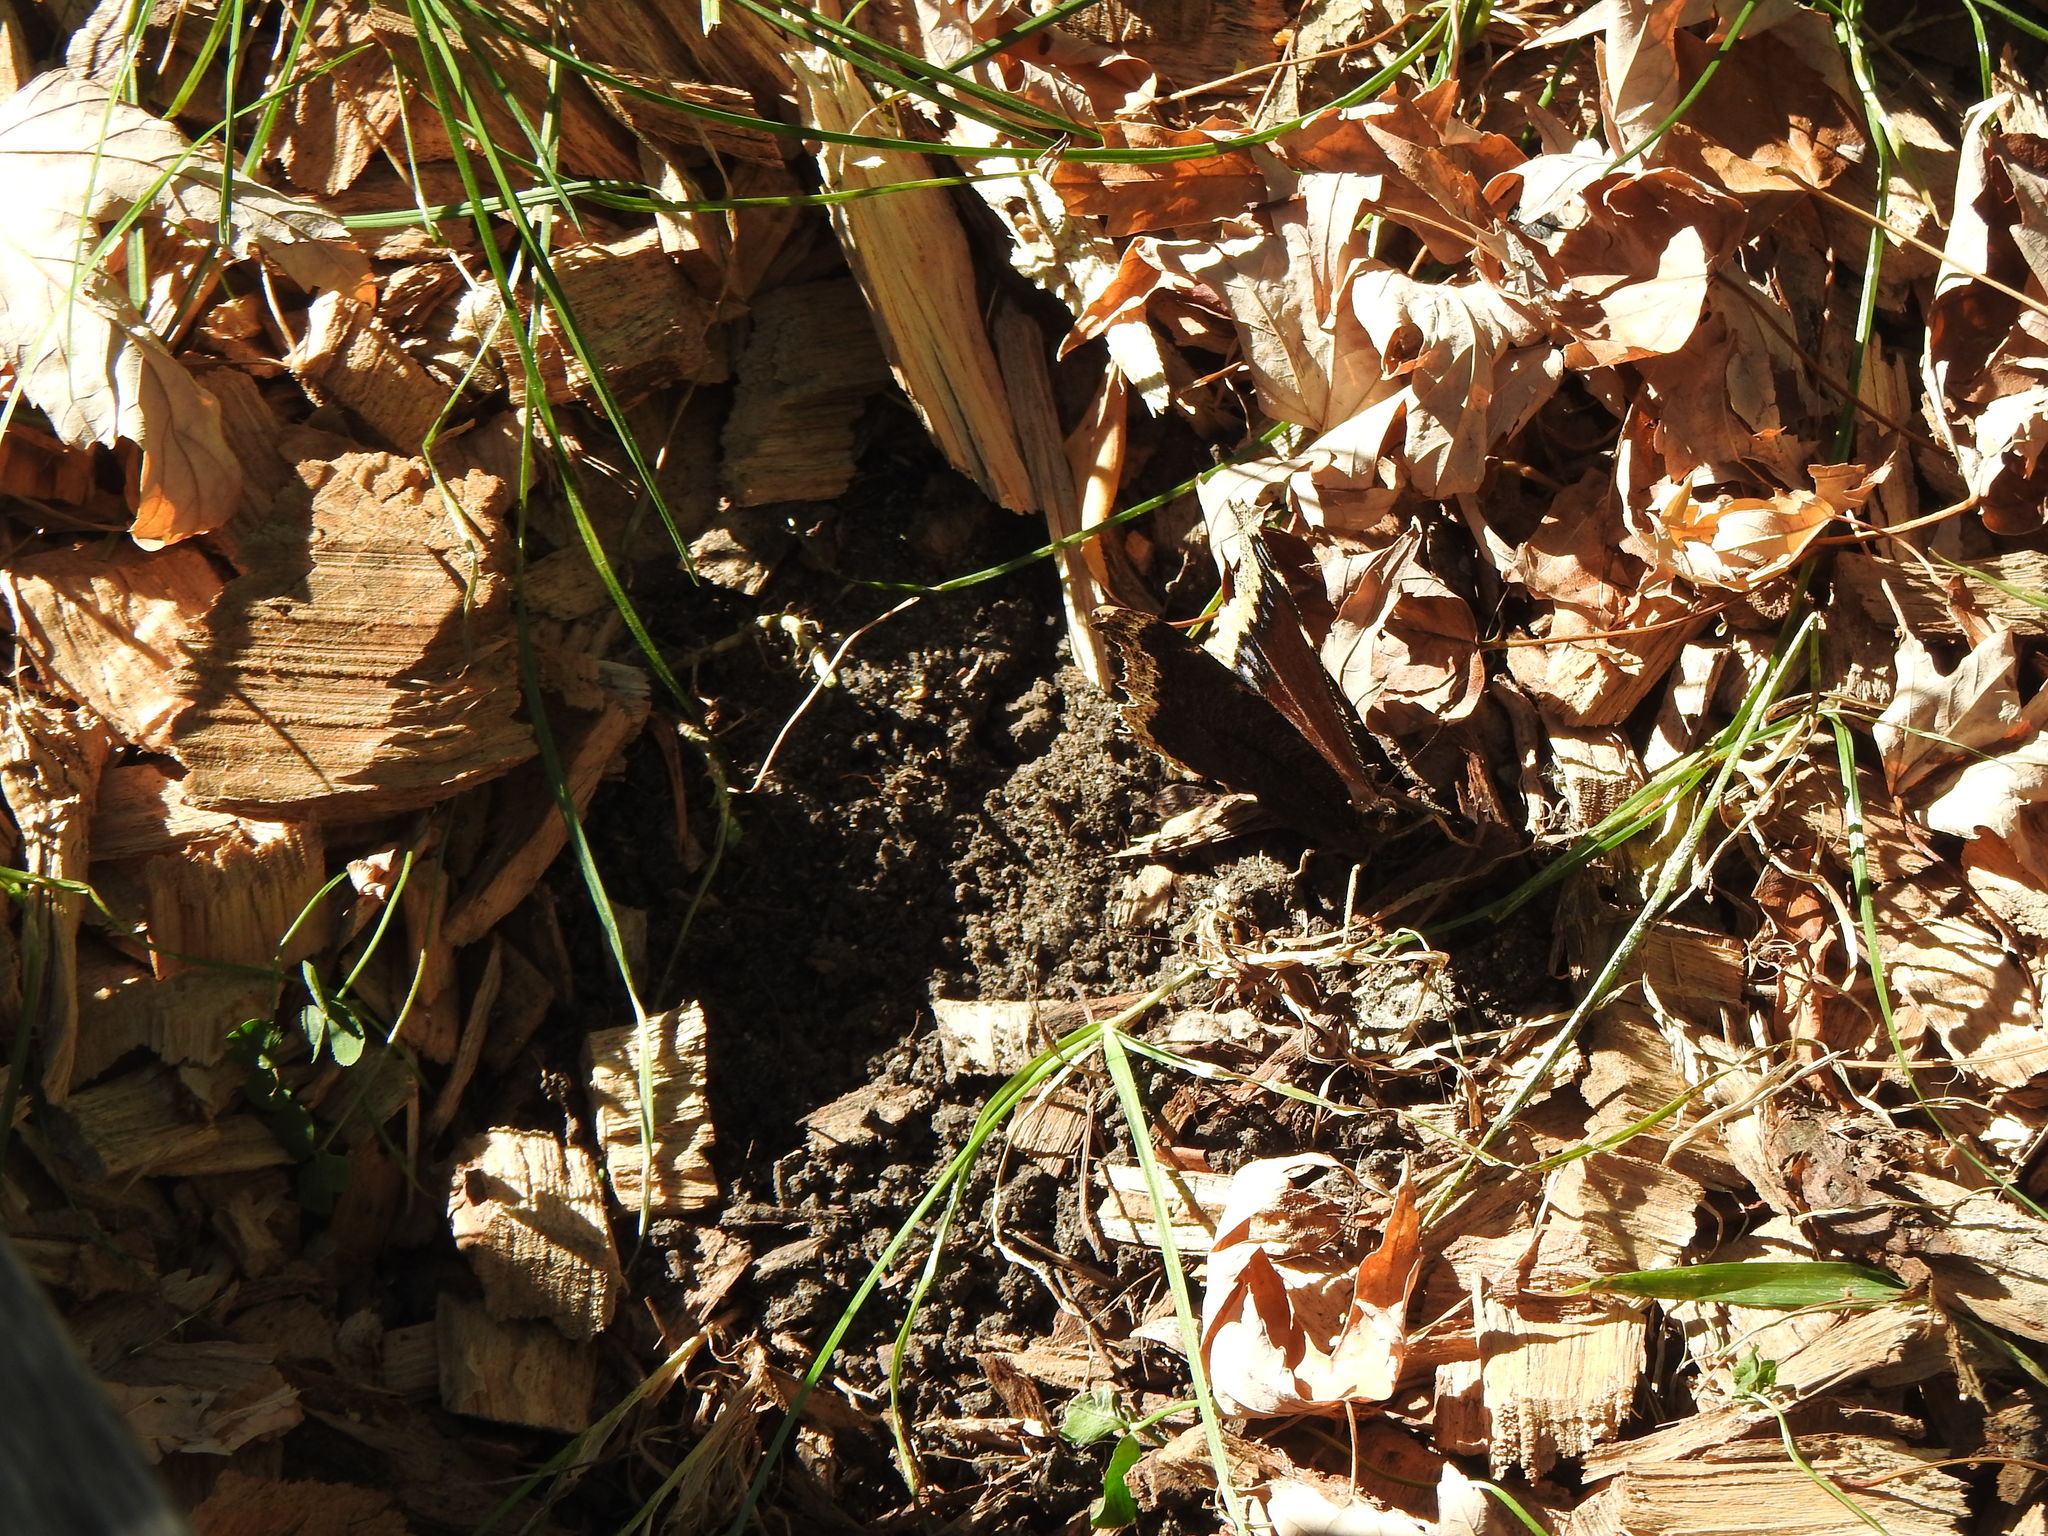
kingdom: Animalia
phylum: Arthropoda
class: Insecta
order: Lepidoptera
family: Nymphalidae
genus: Nymphalis
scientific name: Nymphalis antiopa
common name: Camberwell beauty
